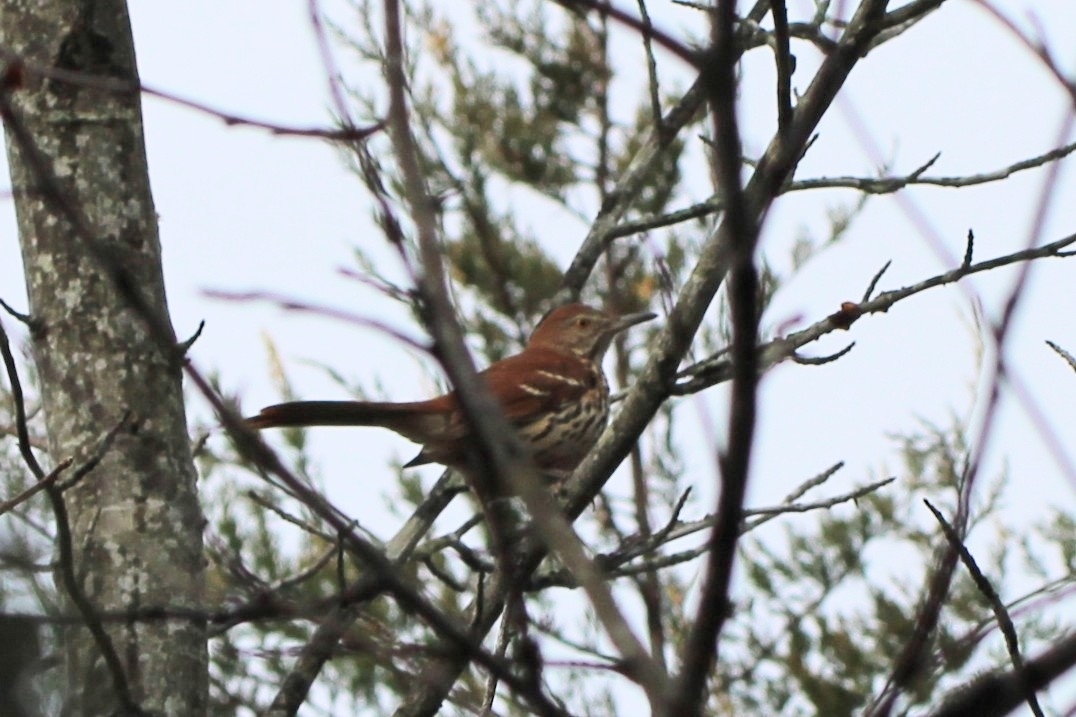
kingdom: Animalia
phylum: Chordata
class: Aves
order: Passeriformes
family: Mimidae
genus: Toxostoma
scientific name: Toxostoma rufum
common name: Brown thrasher
